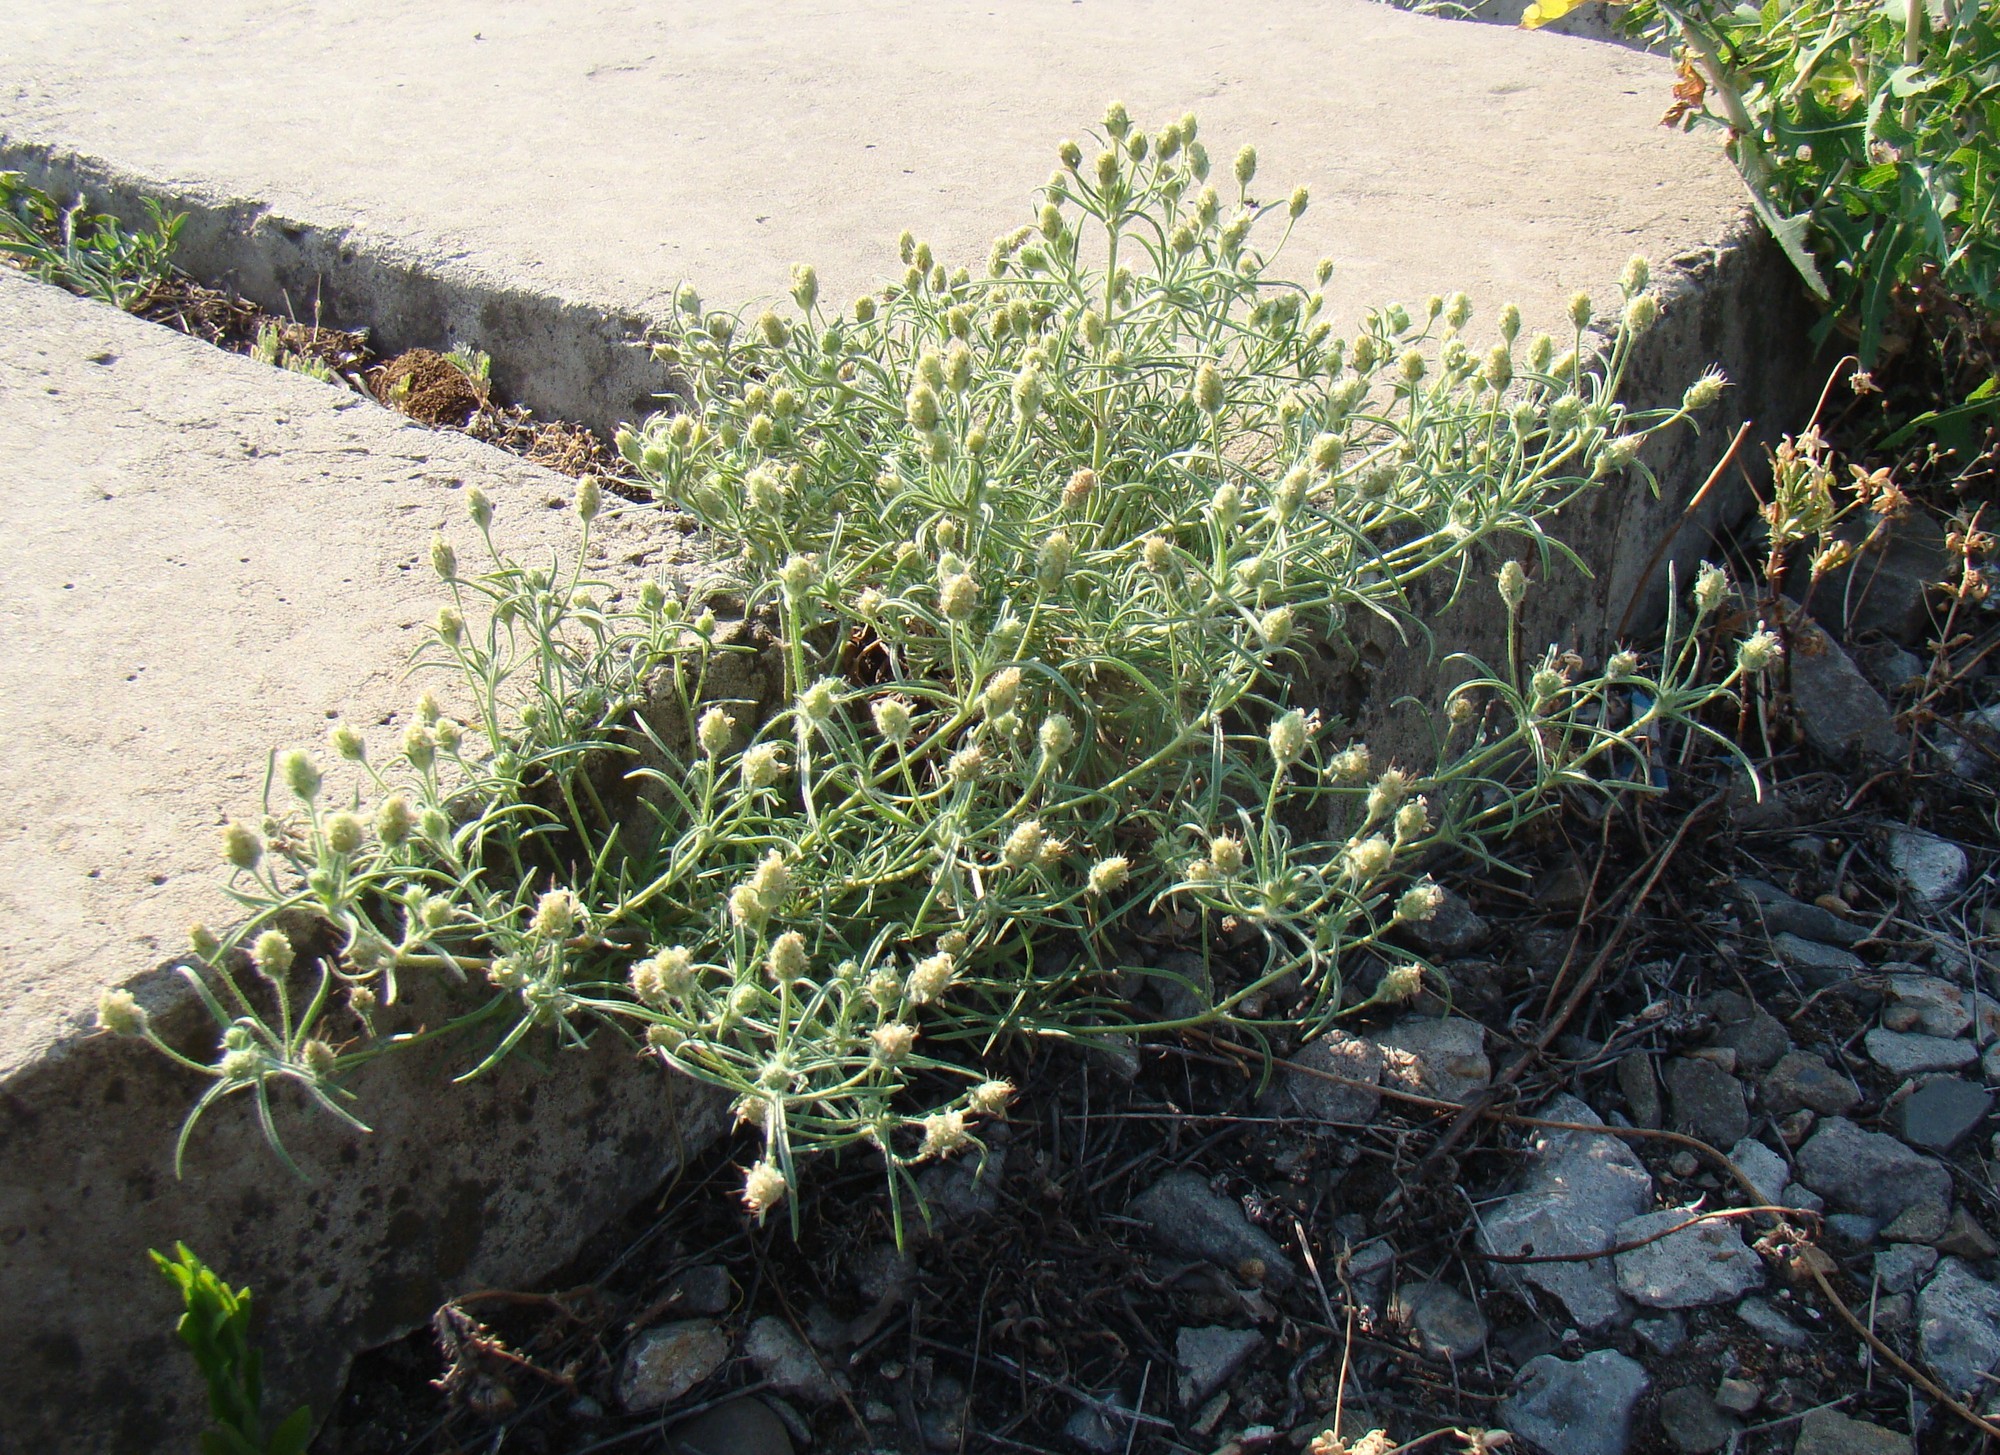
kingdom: Plantae
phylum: Tracheophyta
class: Magnoliopsida
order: Lamiales
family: Plantaginaceae
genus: Plantago
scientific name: Plantago arenaria
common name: Branched plantain
